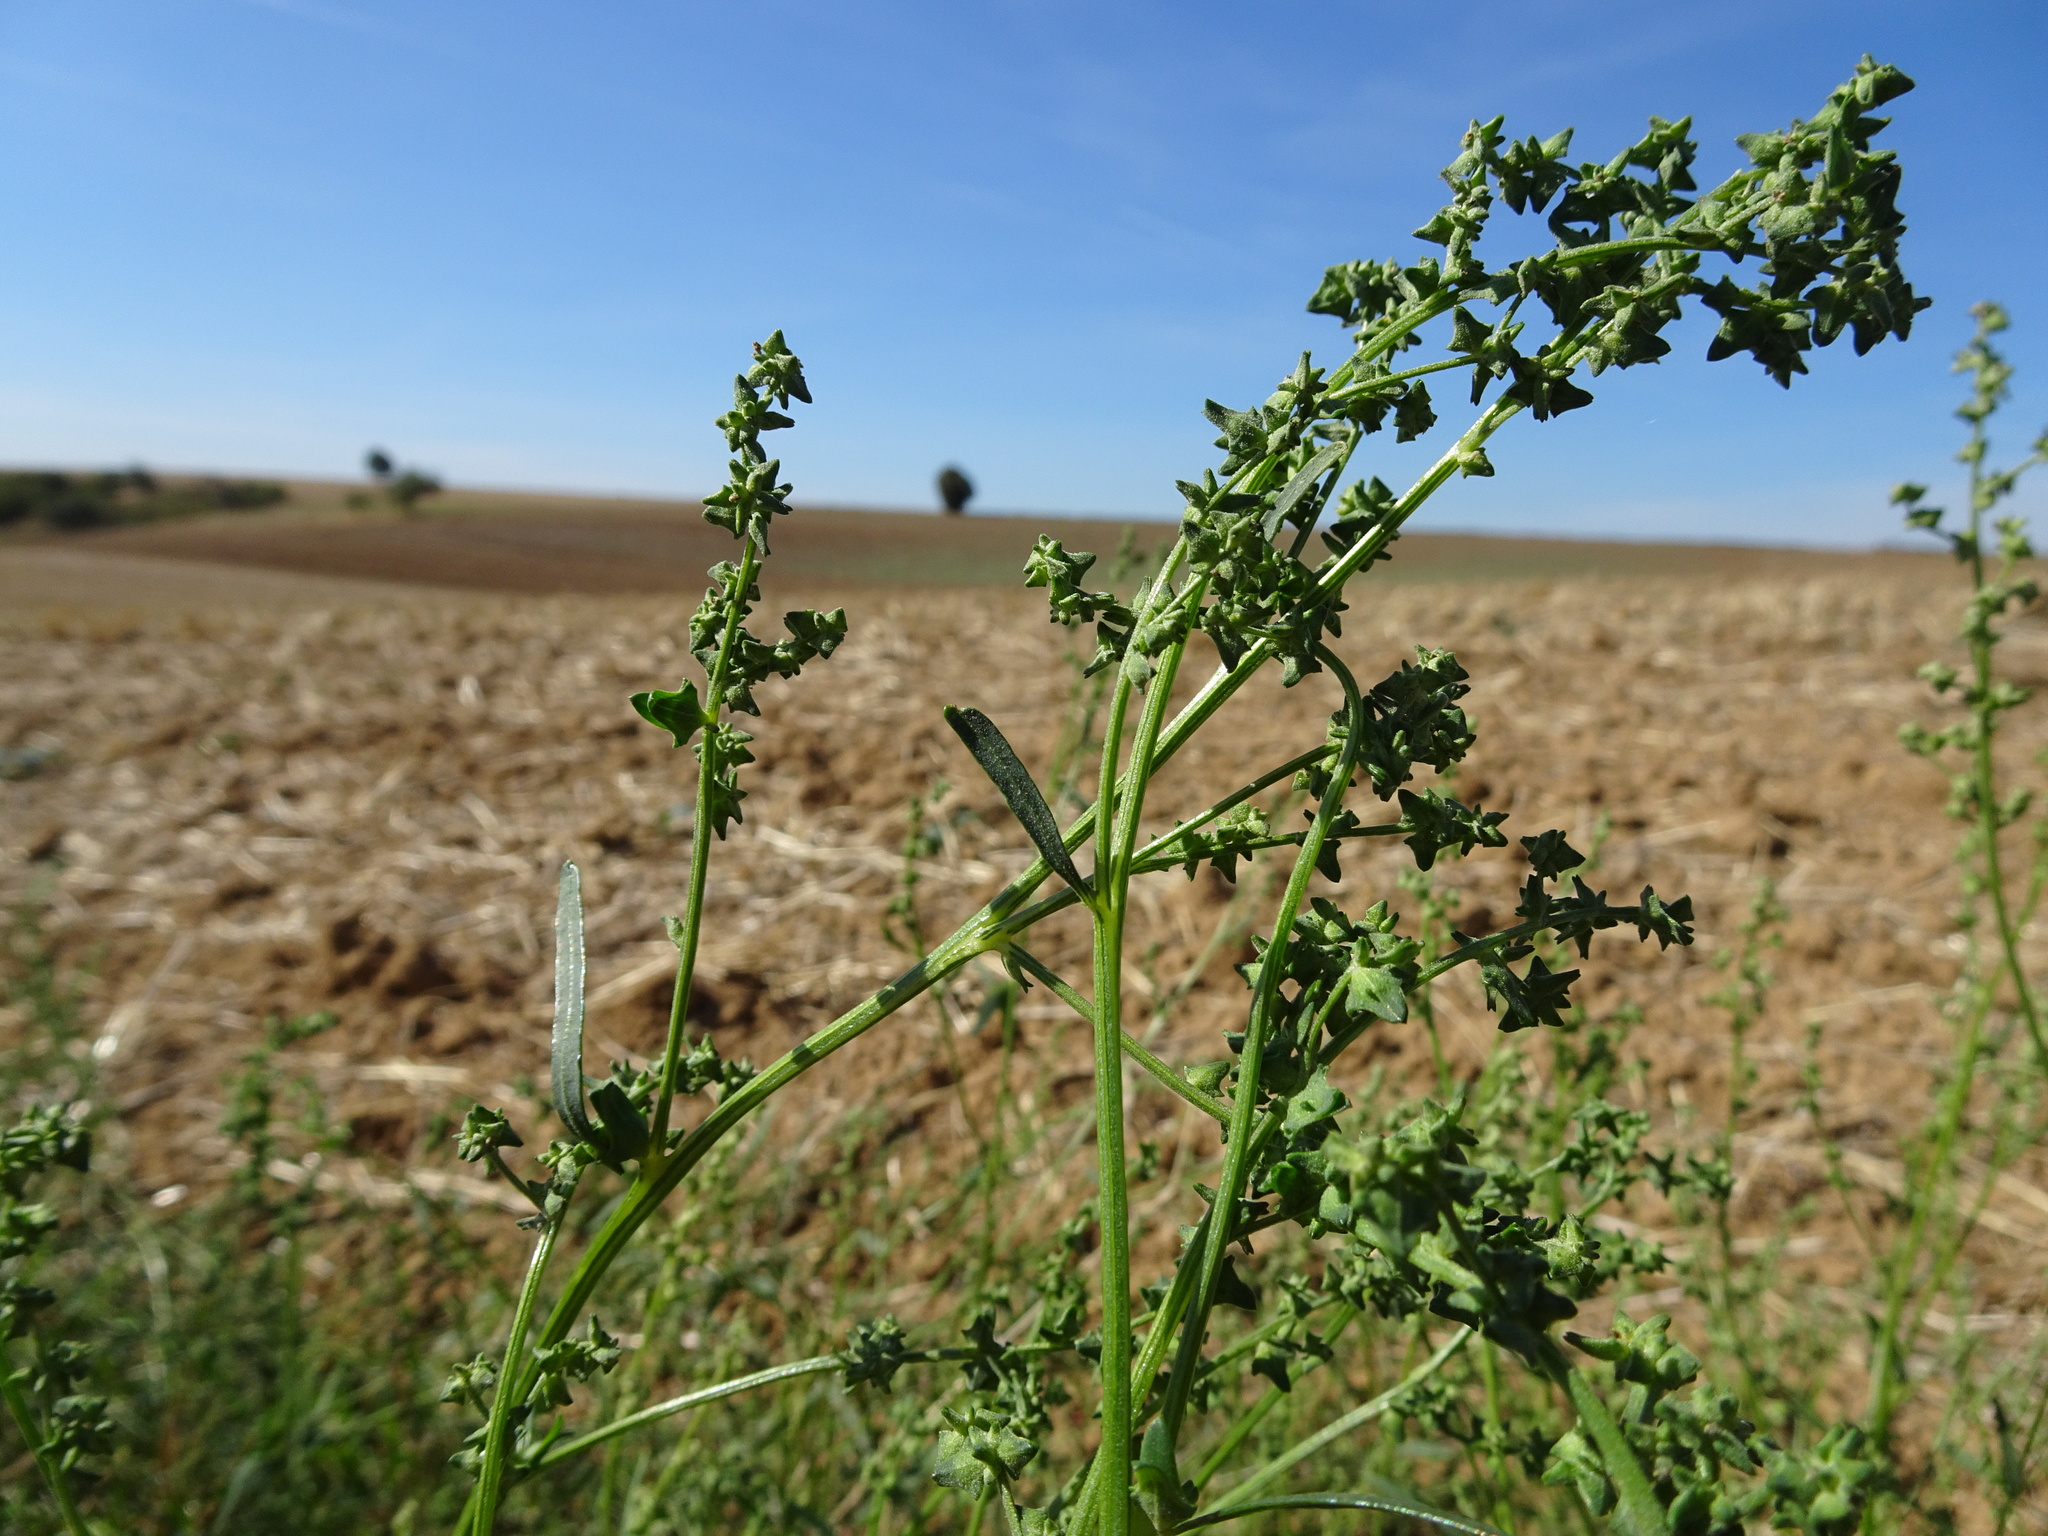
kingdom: Plantae
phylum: Tracheophyta
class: Magnoliopsida
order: Caryophyllales
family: Amaranthaceae
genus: Atriplex
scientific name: Atriplex patula
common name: Common orache
